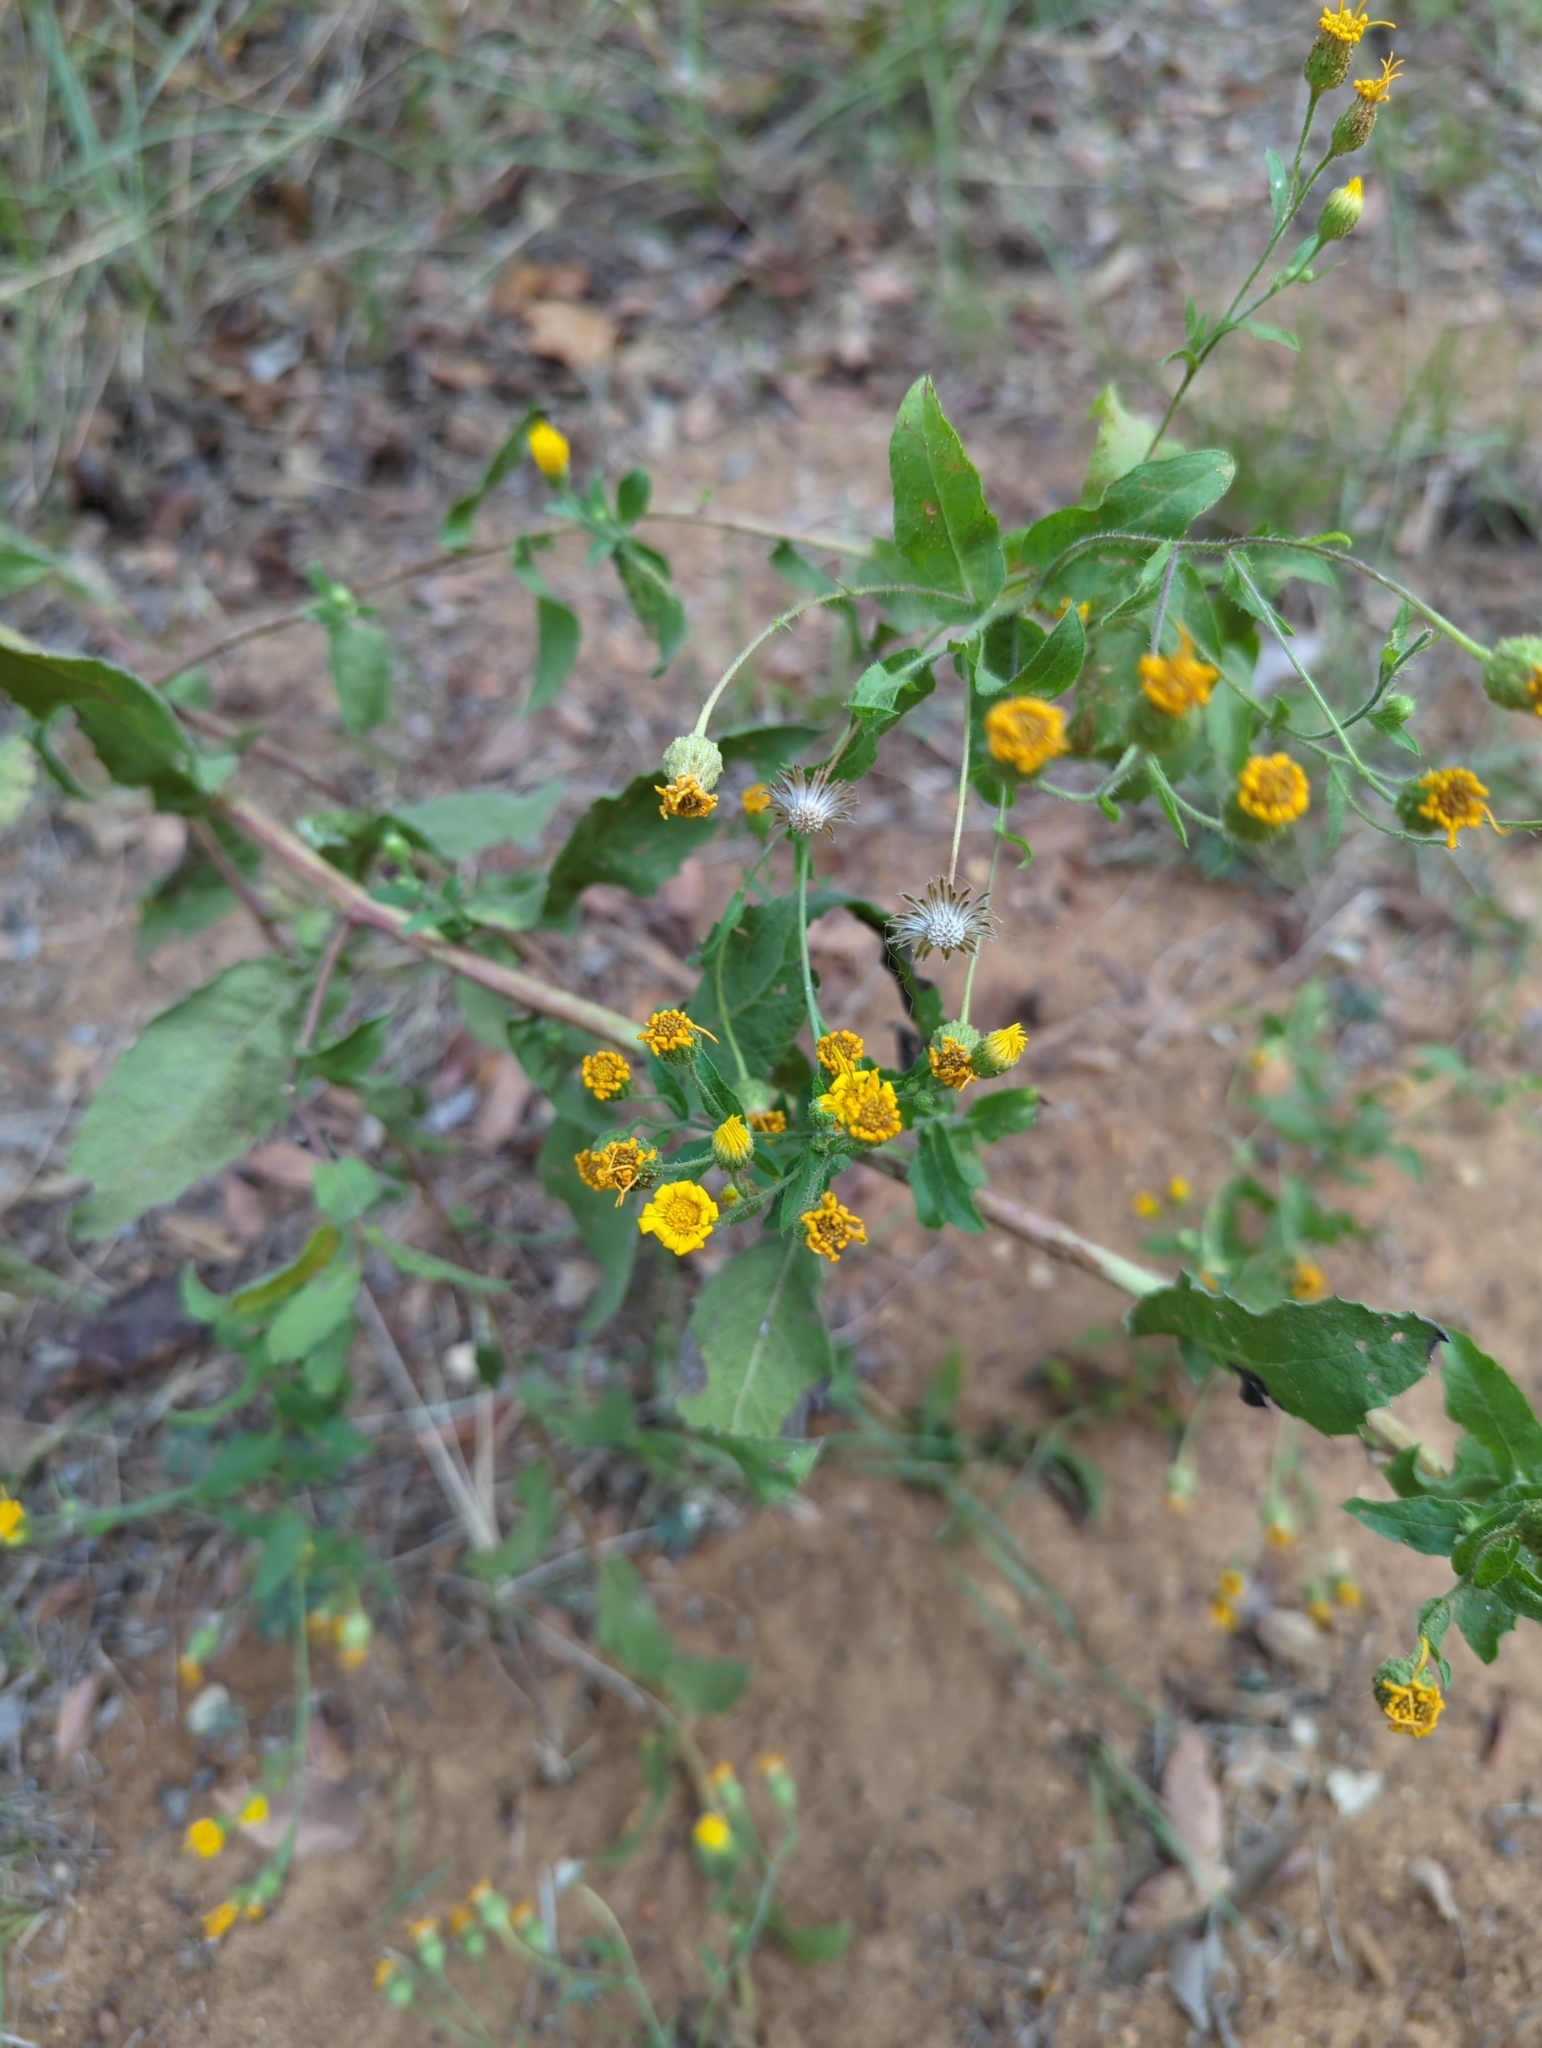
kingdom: Plantae
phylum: Tracheophyta
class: Magnoliopsida
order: Asterales
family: Asteraceae
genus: Heterotheca
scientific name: Heterotheca subaxillaris
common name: Camphorweed
